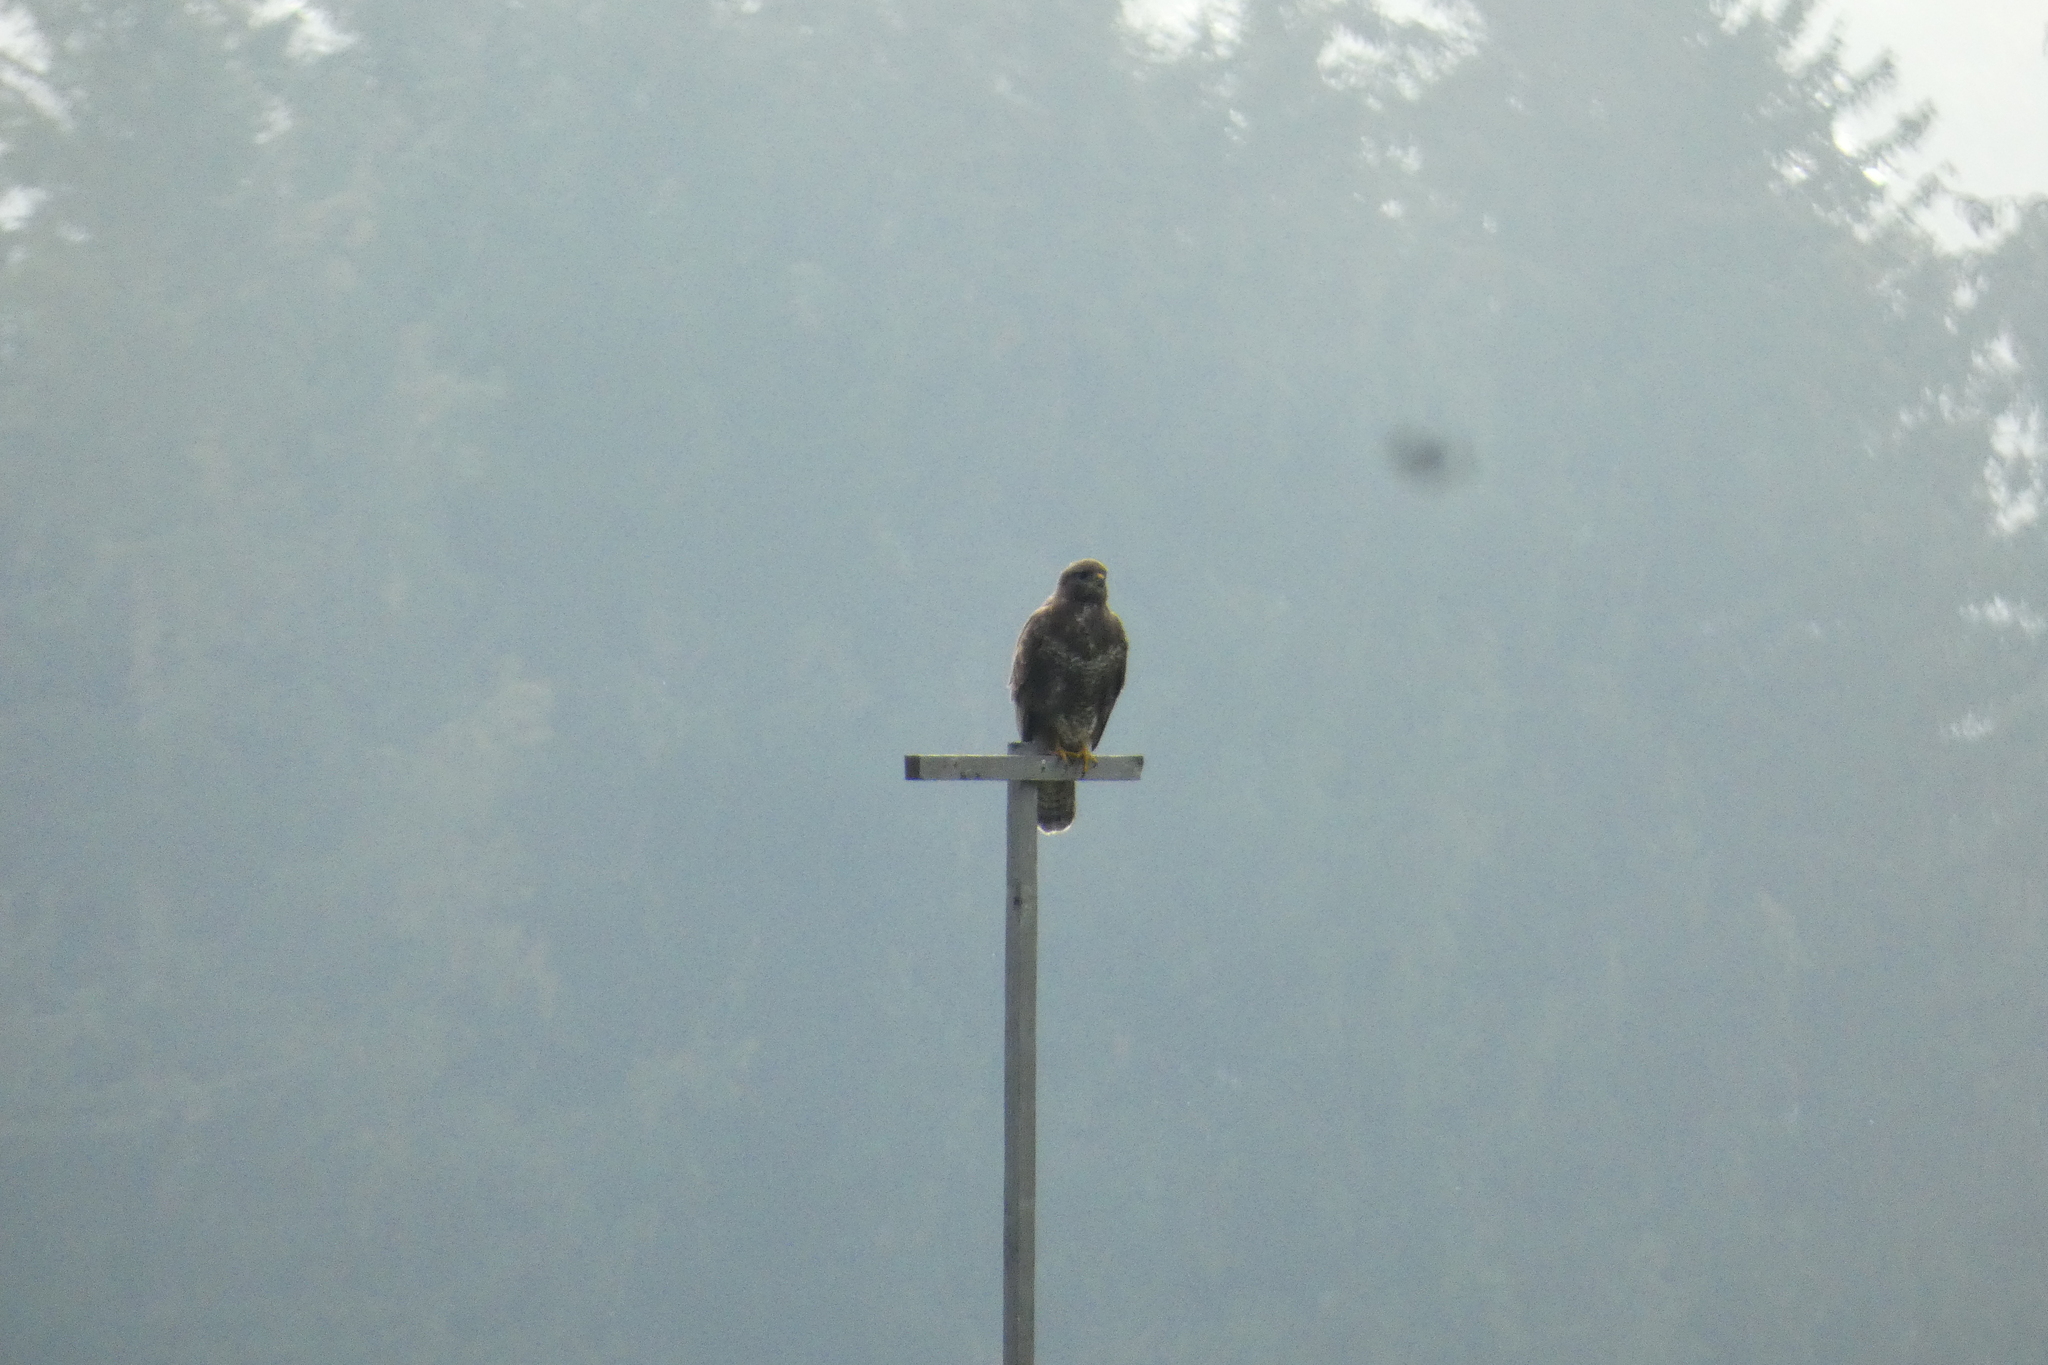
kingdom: Animalia
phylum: Chordata
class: Aves
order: Accipitriformes
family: Accipitridae
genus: Buteo
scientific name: Buteo buteo
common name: Common buzzard
